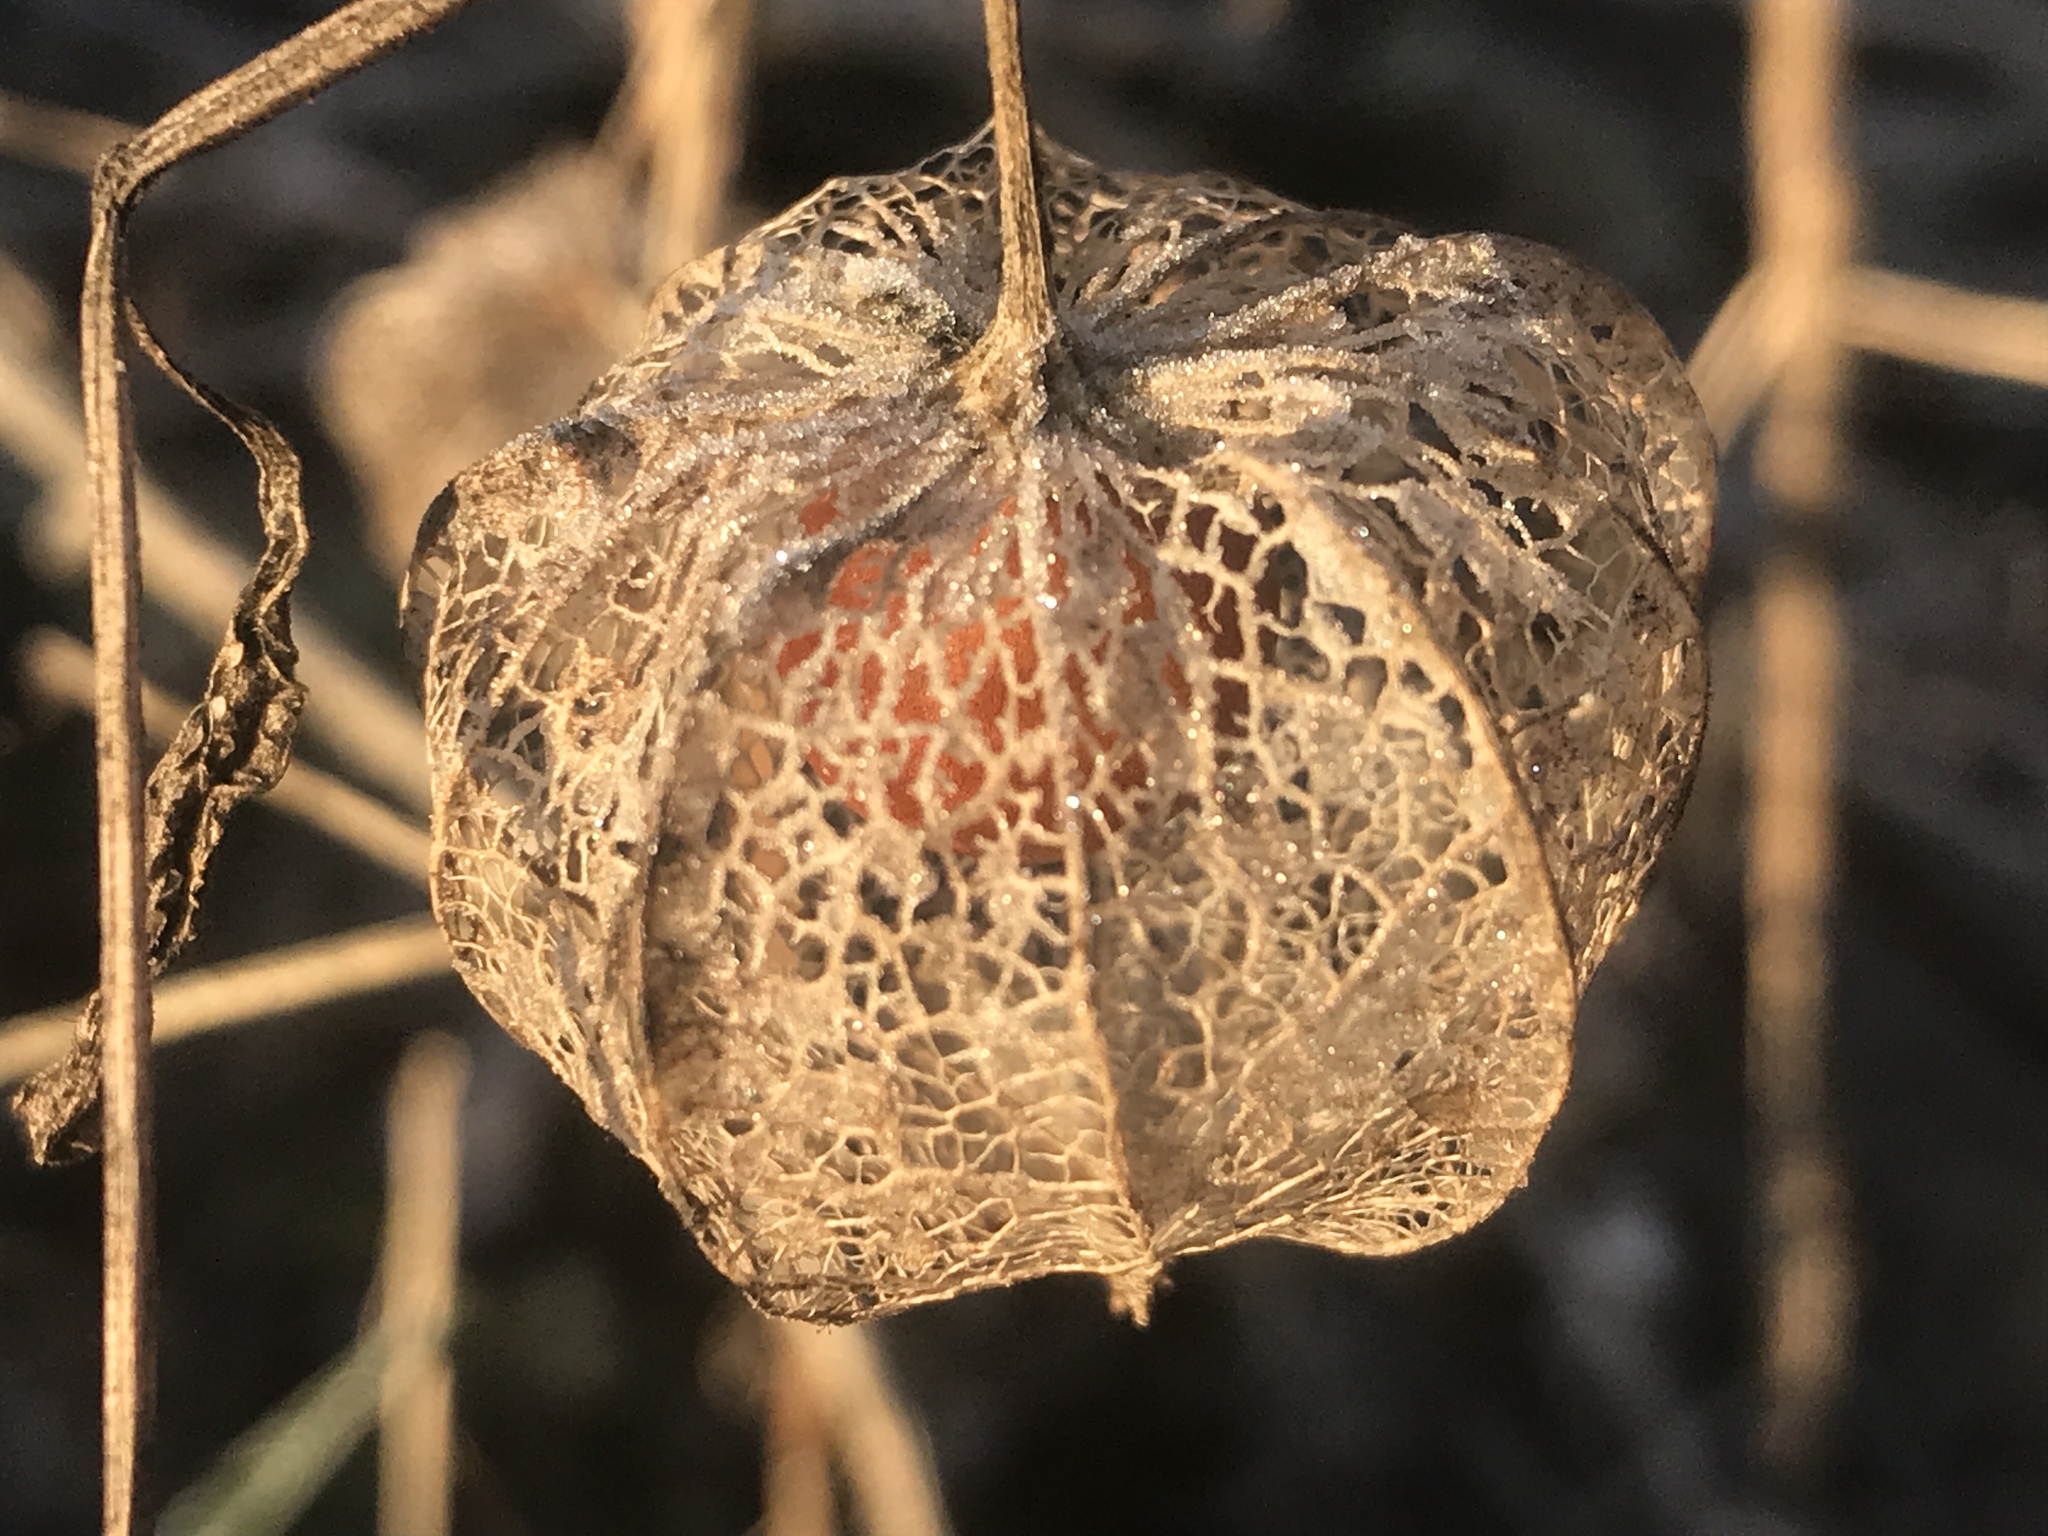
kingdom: Plantae
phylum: Tracheophyta
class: Magnoliopsida
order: Solanales
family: Solanaceae
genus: Physalis
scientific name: Physalis
